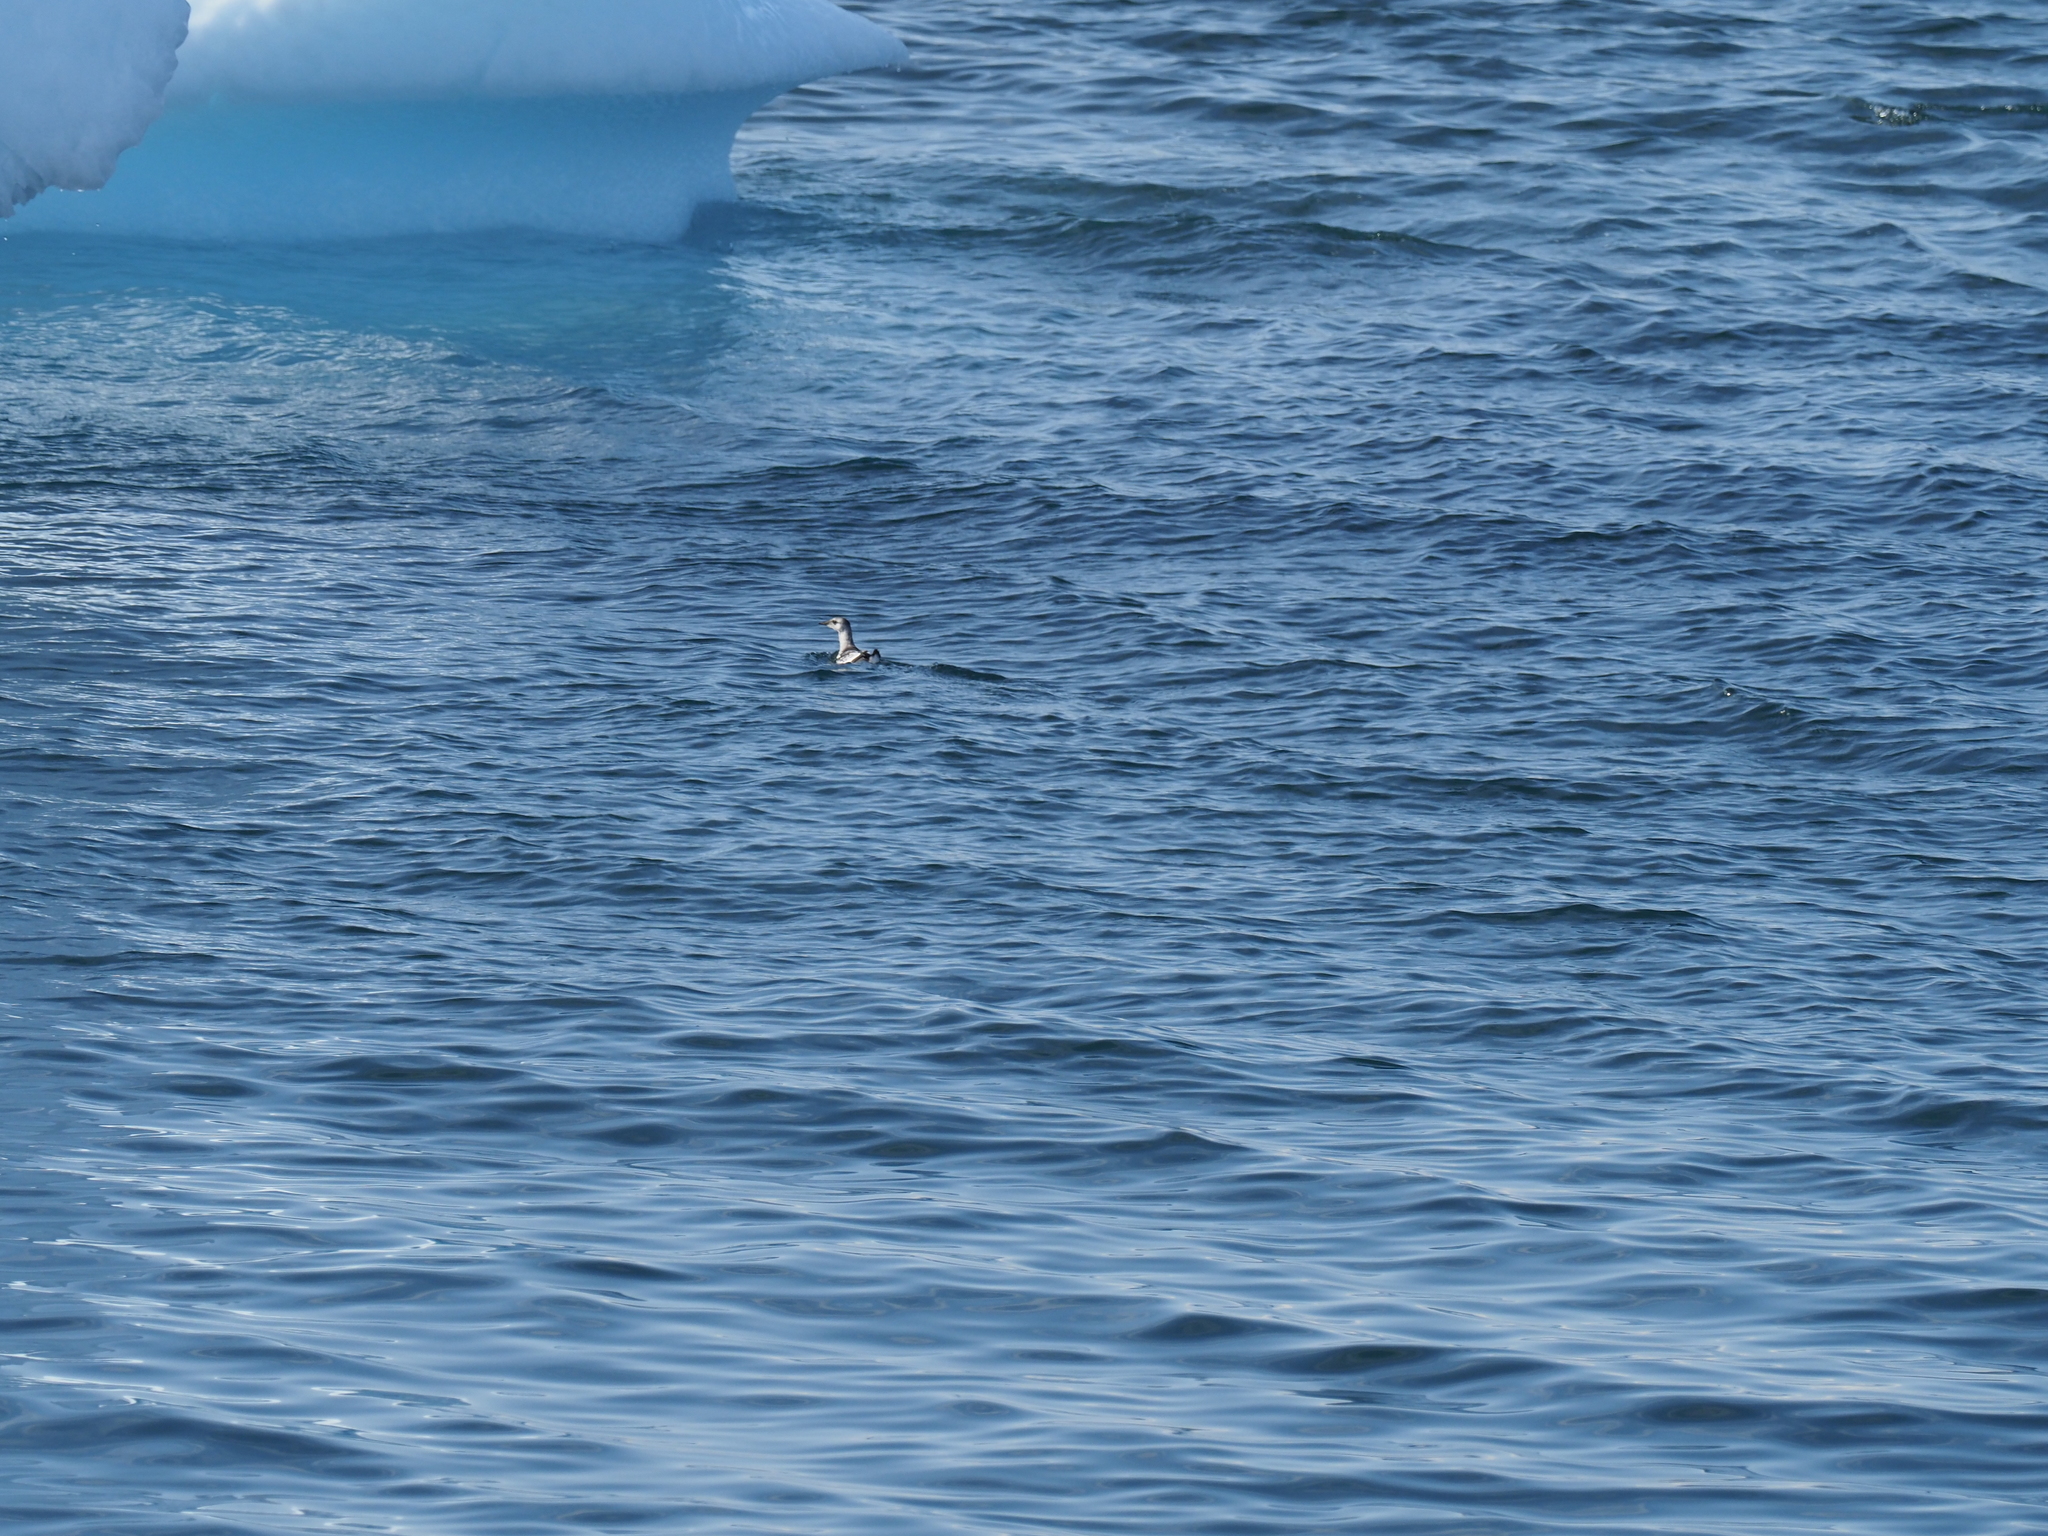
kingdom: Animalia
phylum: Chordata
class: Aves
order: Charadriiformes
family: Alcidae
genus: Cepphus
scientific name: Cepphus grylle
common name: Black guillemot
